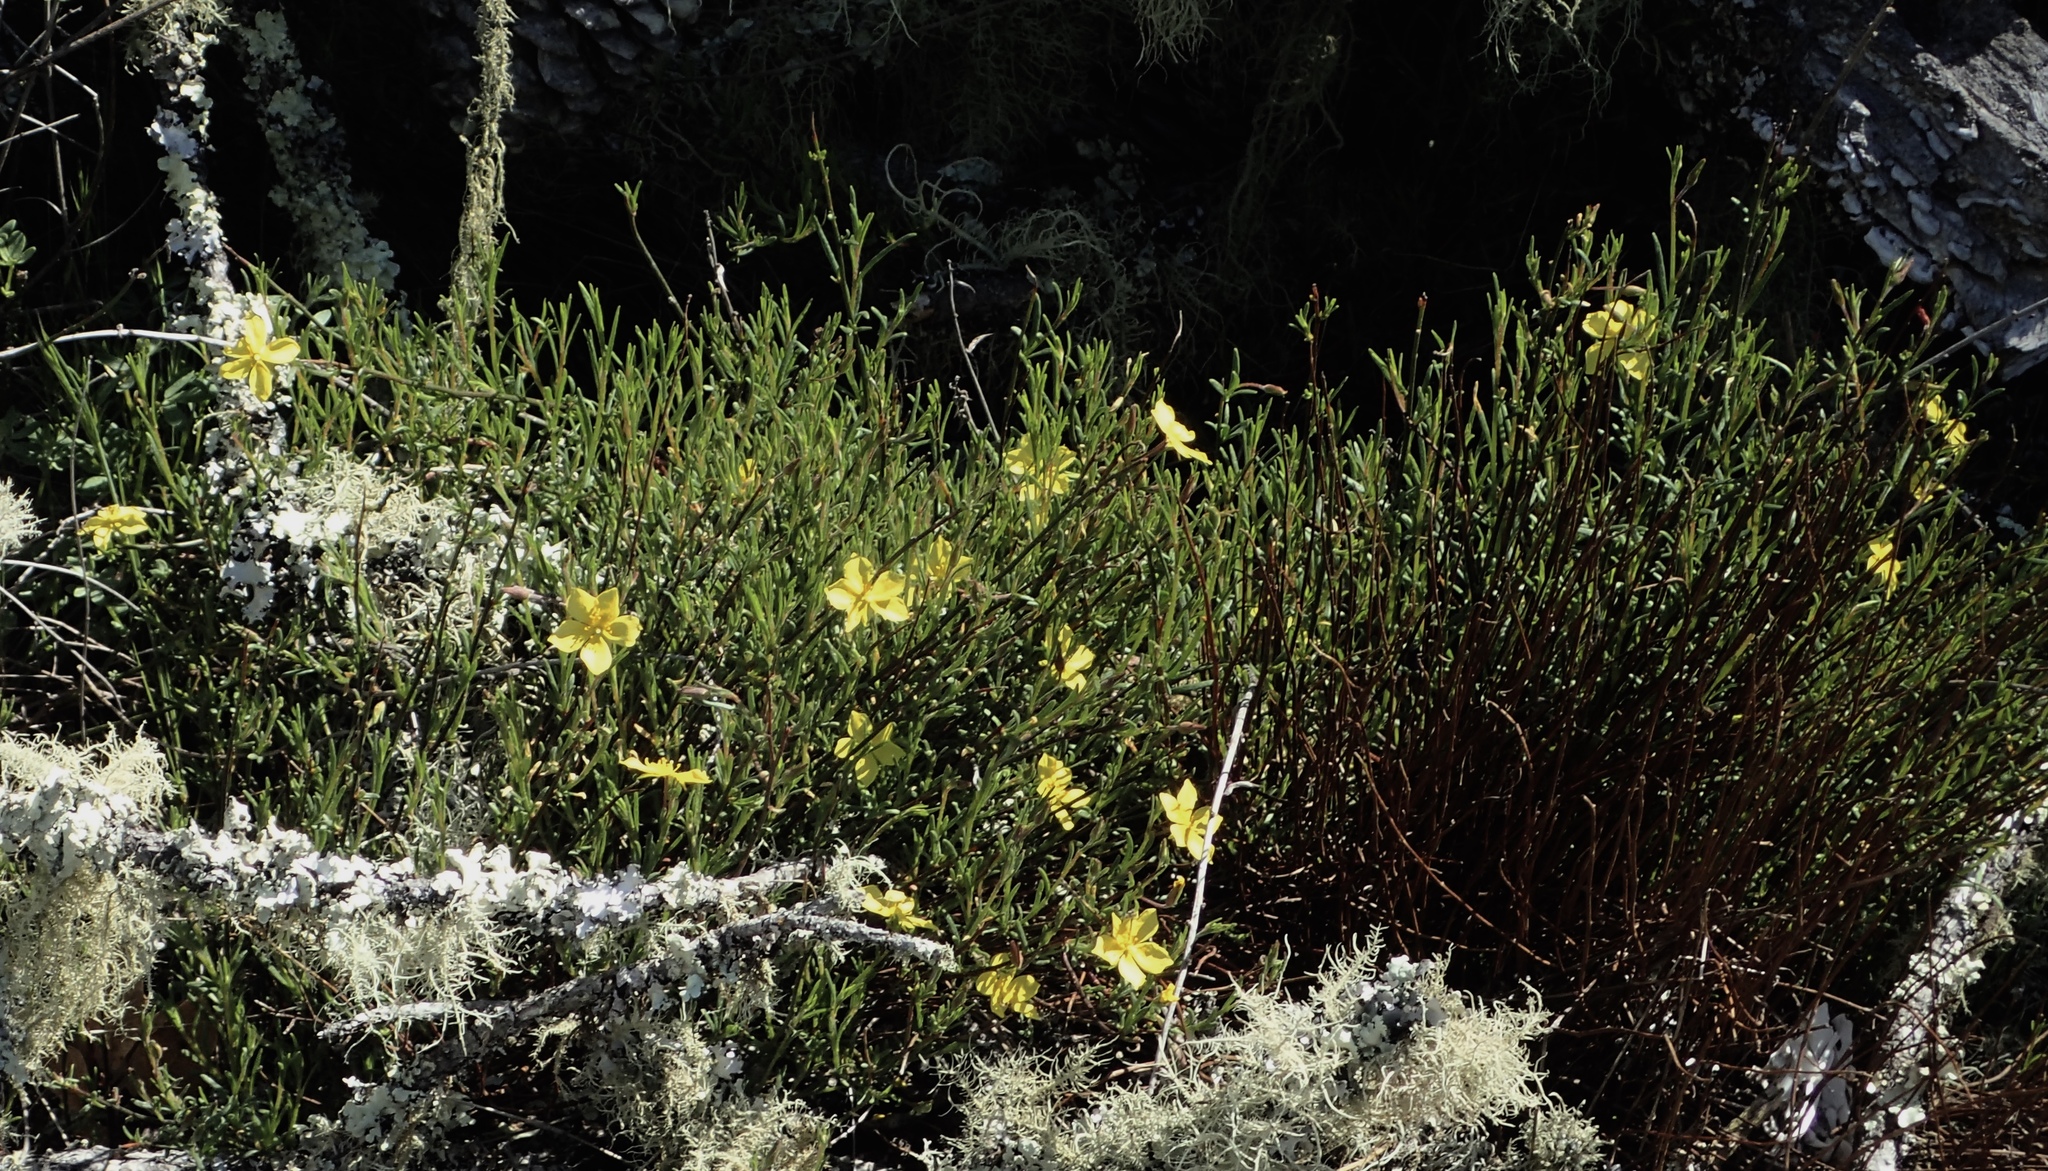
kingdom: Plantae
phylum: Tracheophyta
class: Magnoliopsida
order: Malvales
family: Cistaceae
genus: Crocanthemum
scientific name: Crocanthemum scoparium
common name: Broom-rose
